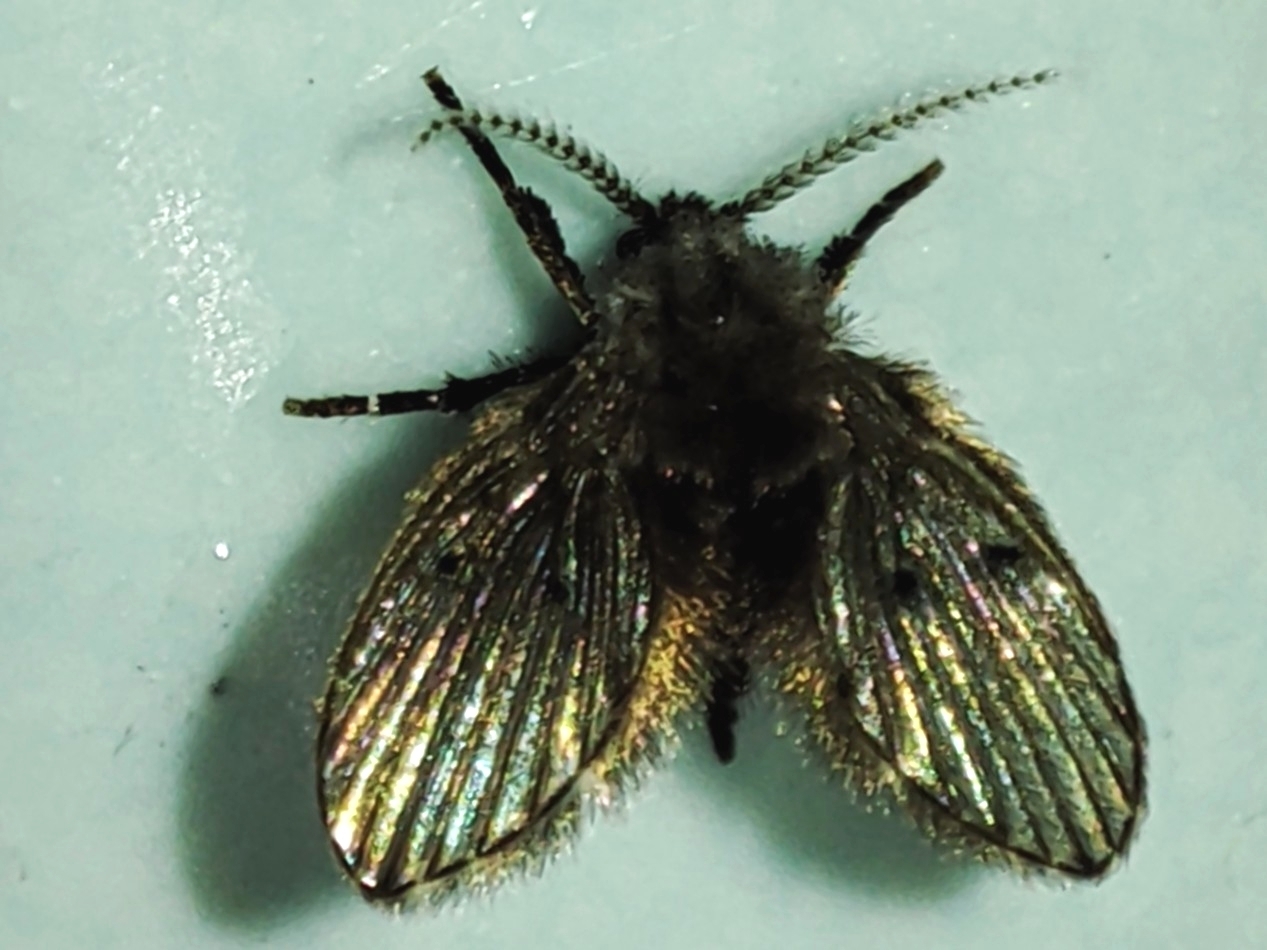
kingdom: Animalia
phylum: Arthropoda
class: Insecta
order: Diptera
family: Psychodidae
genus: Clogmia
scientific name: Clogmia albipunctatus
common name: White-spotted moth fly
